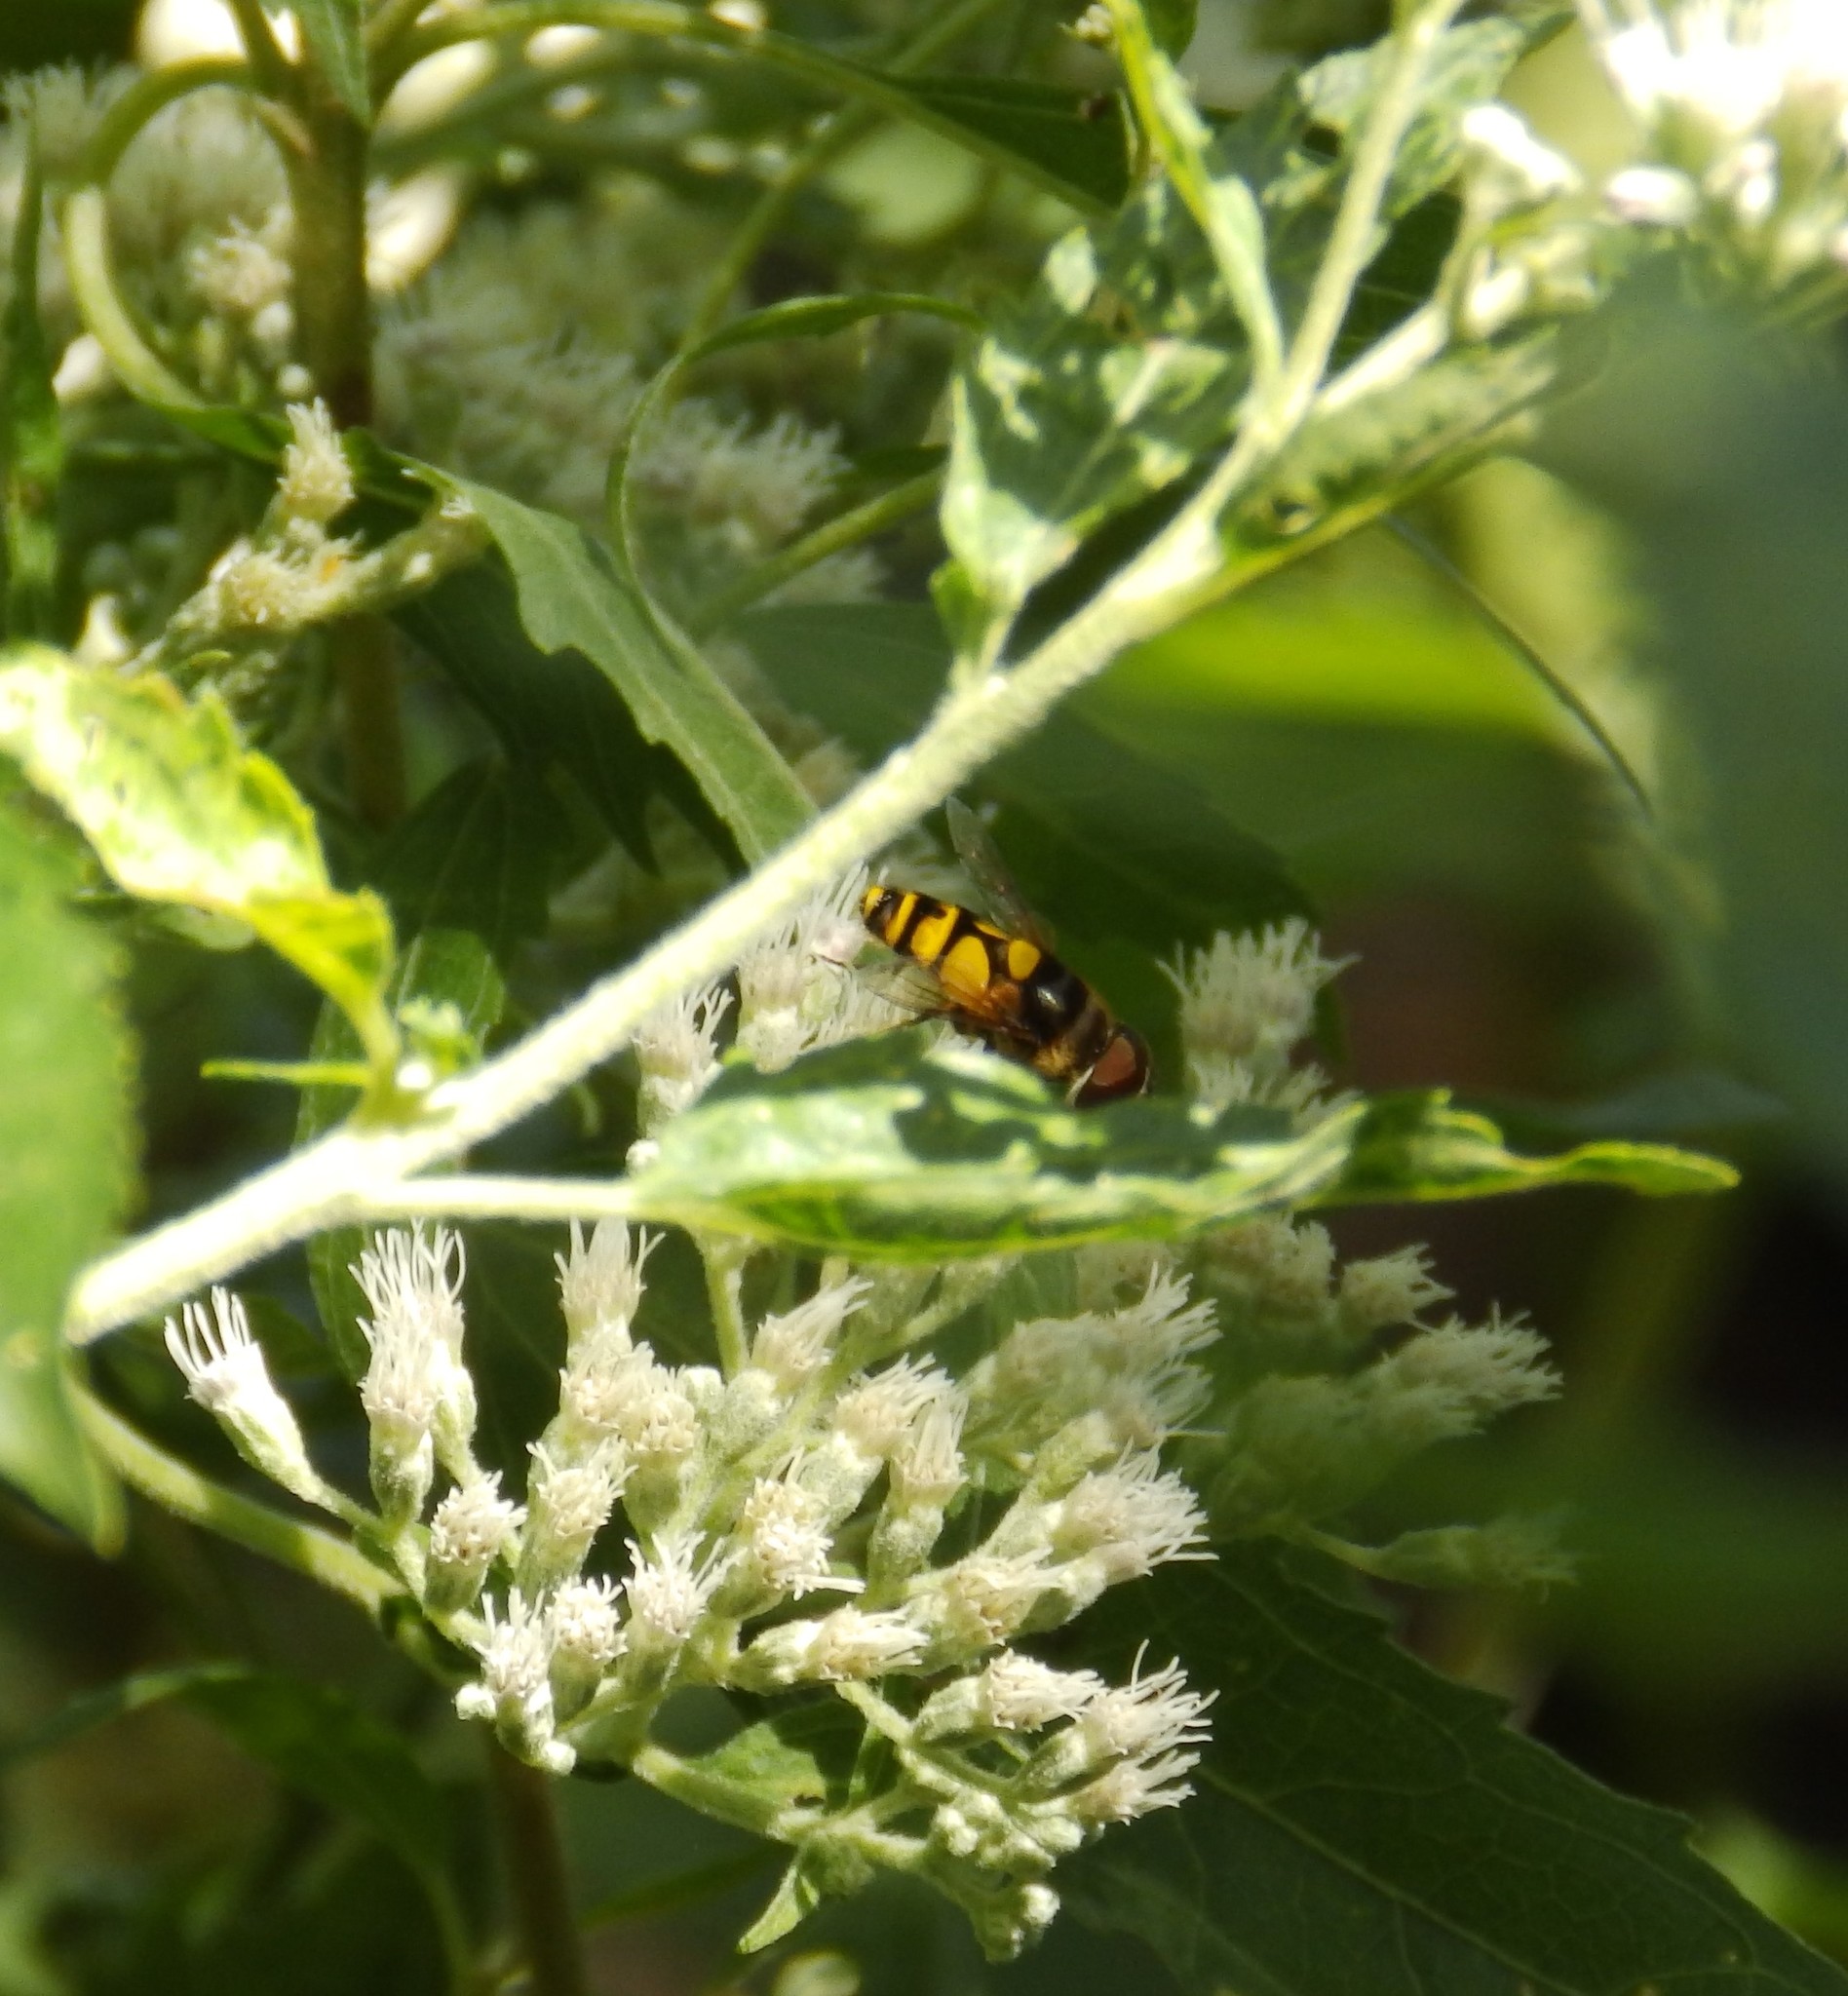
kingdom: Animalia
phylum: Arthropoda
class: Insecta
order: Diptera
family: Syrphidae
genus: Eristalis
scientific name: Eristalis transversa
